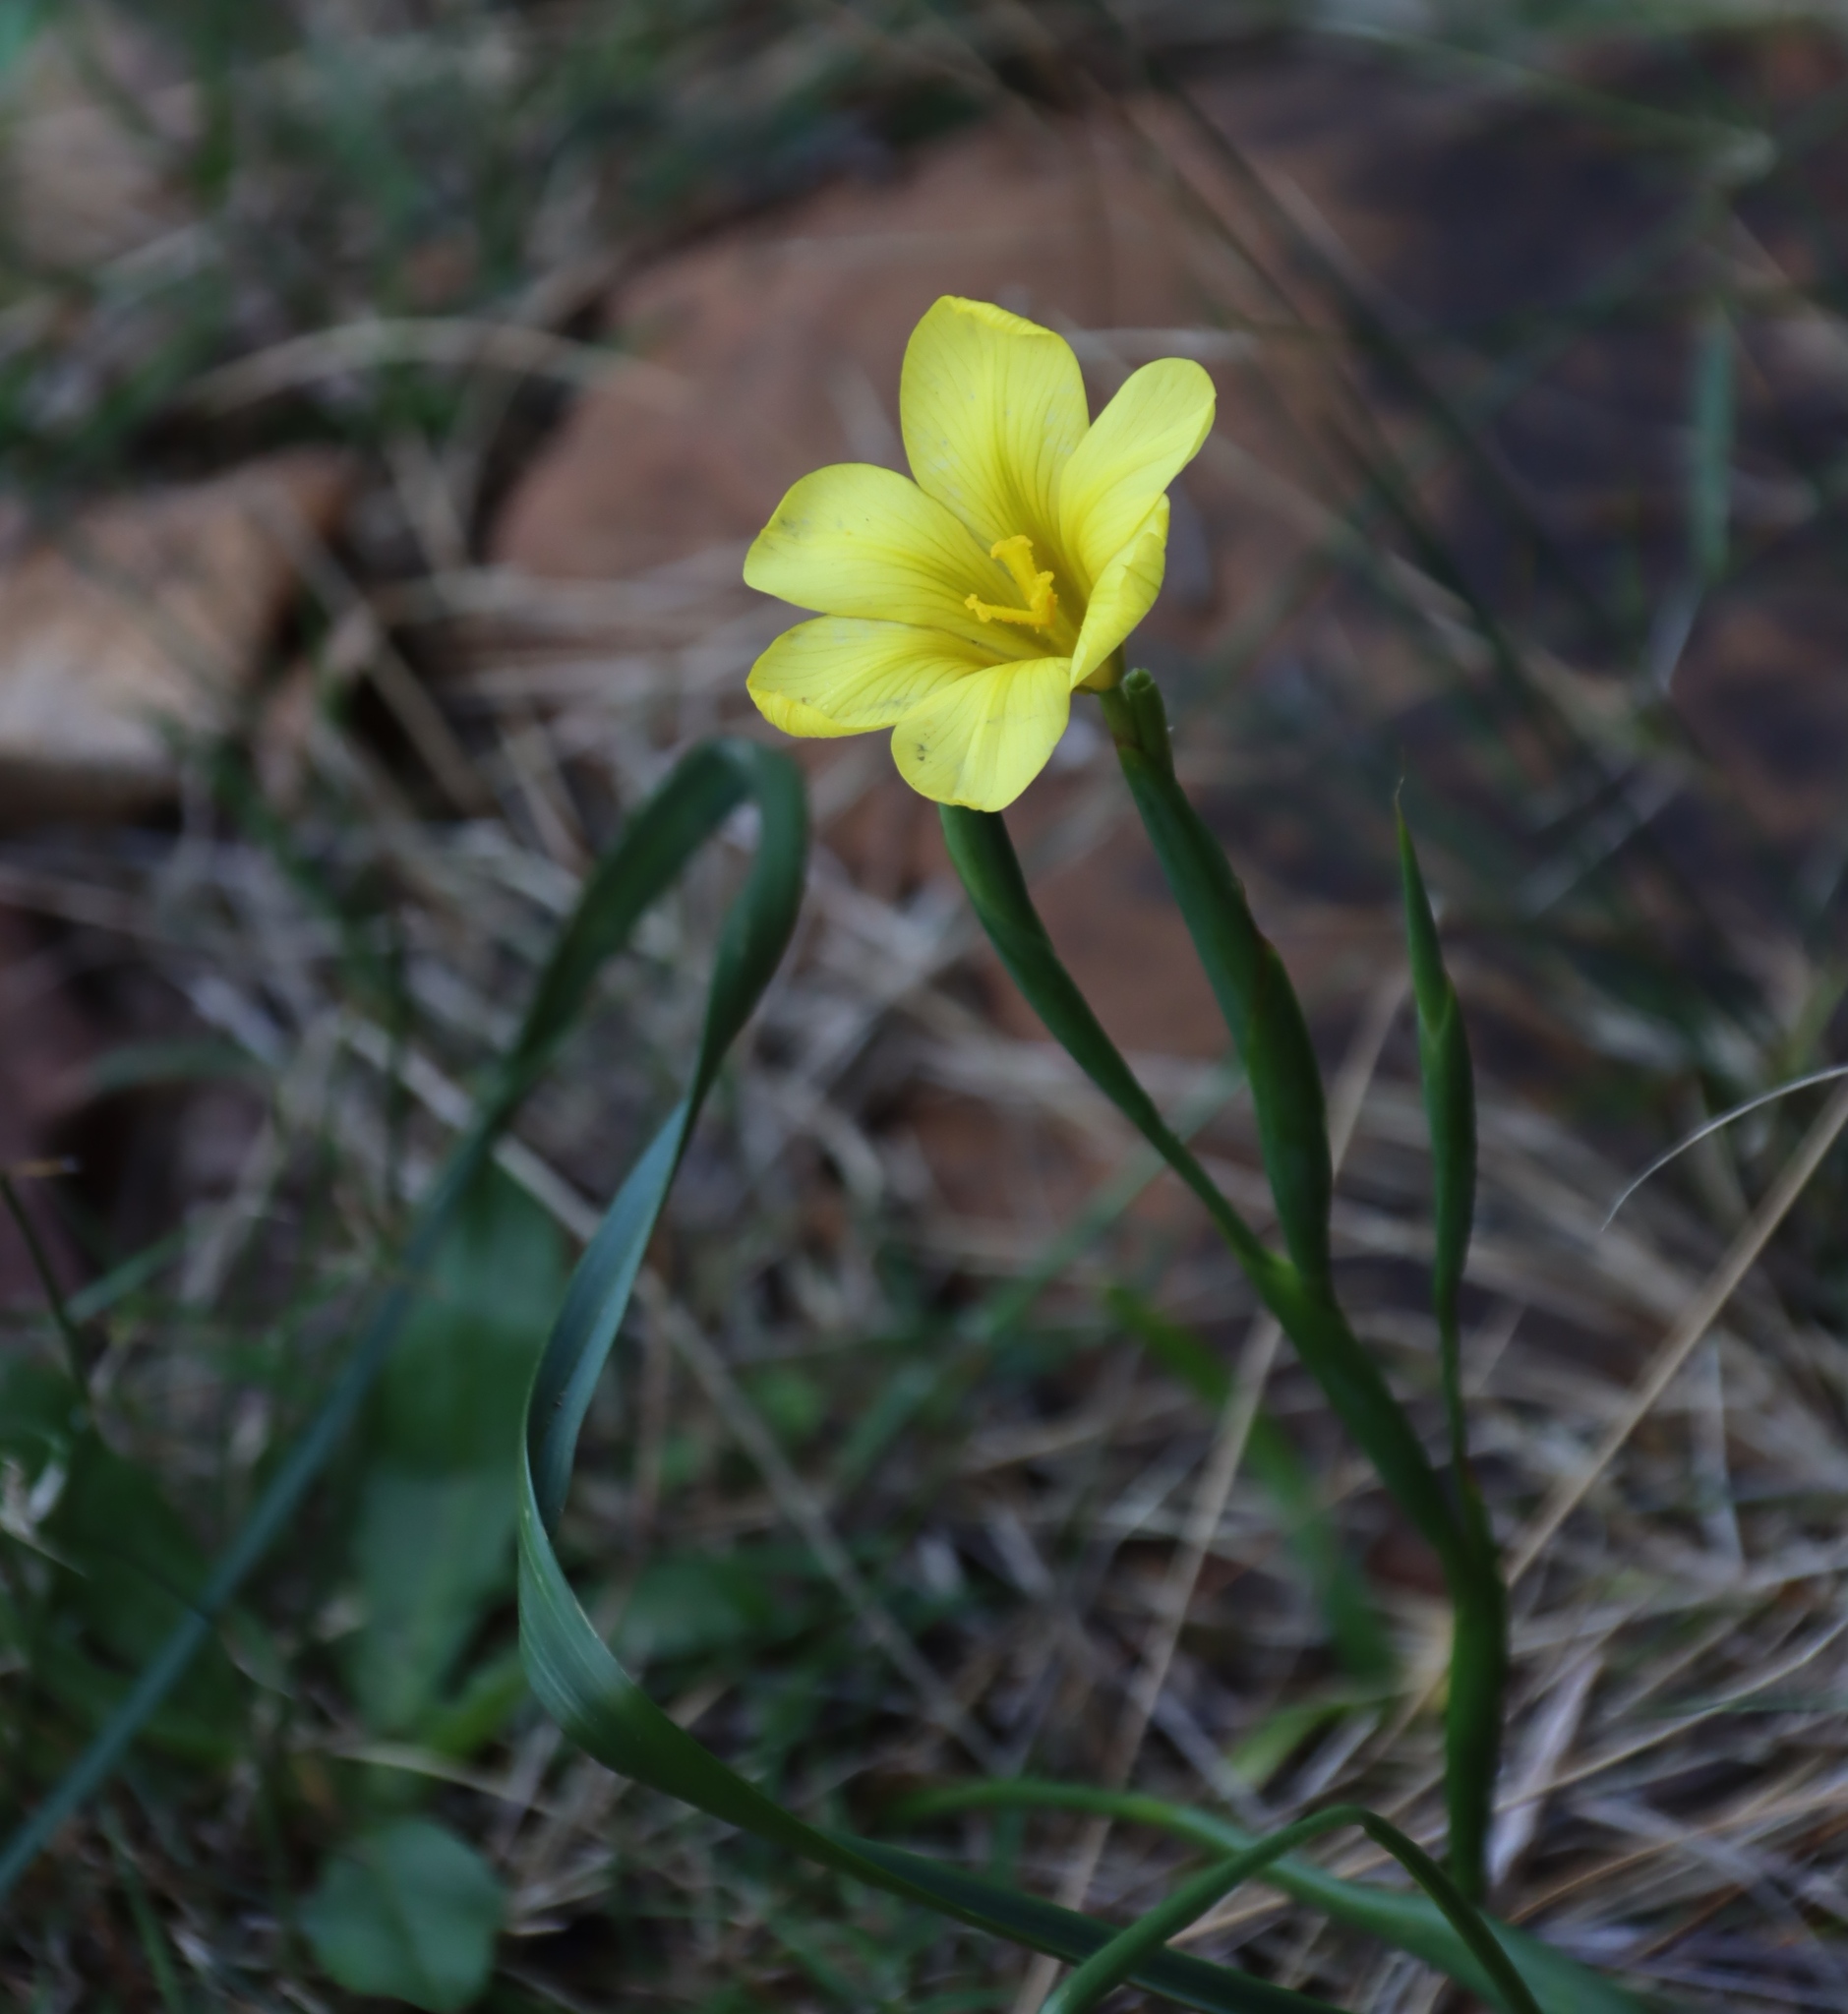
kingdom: Plantae
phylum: Tracheophyta
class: Liliopsida
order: Asparagales
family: Iridaceae
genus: Moraea
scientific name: Moraea ochroleuca
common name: Red tulp
